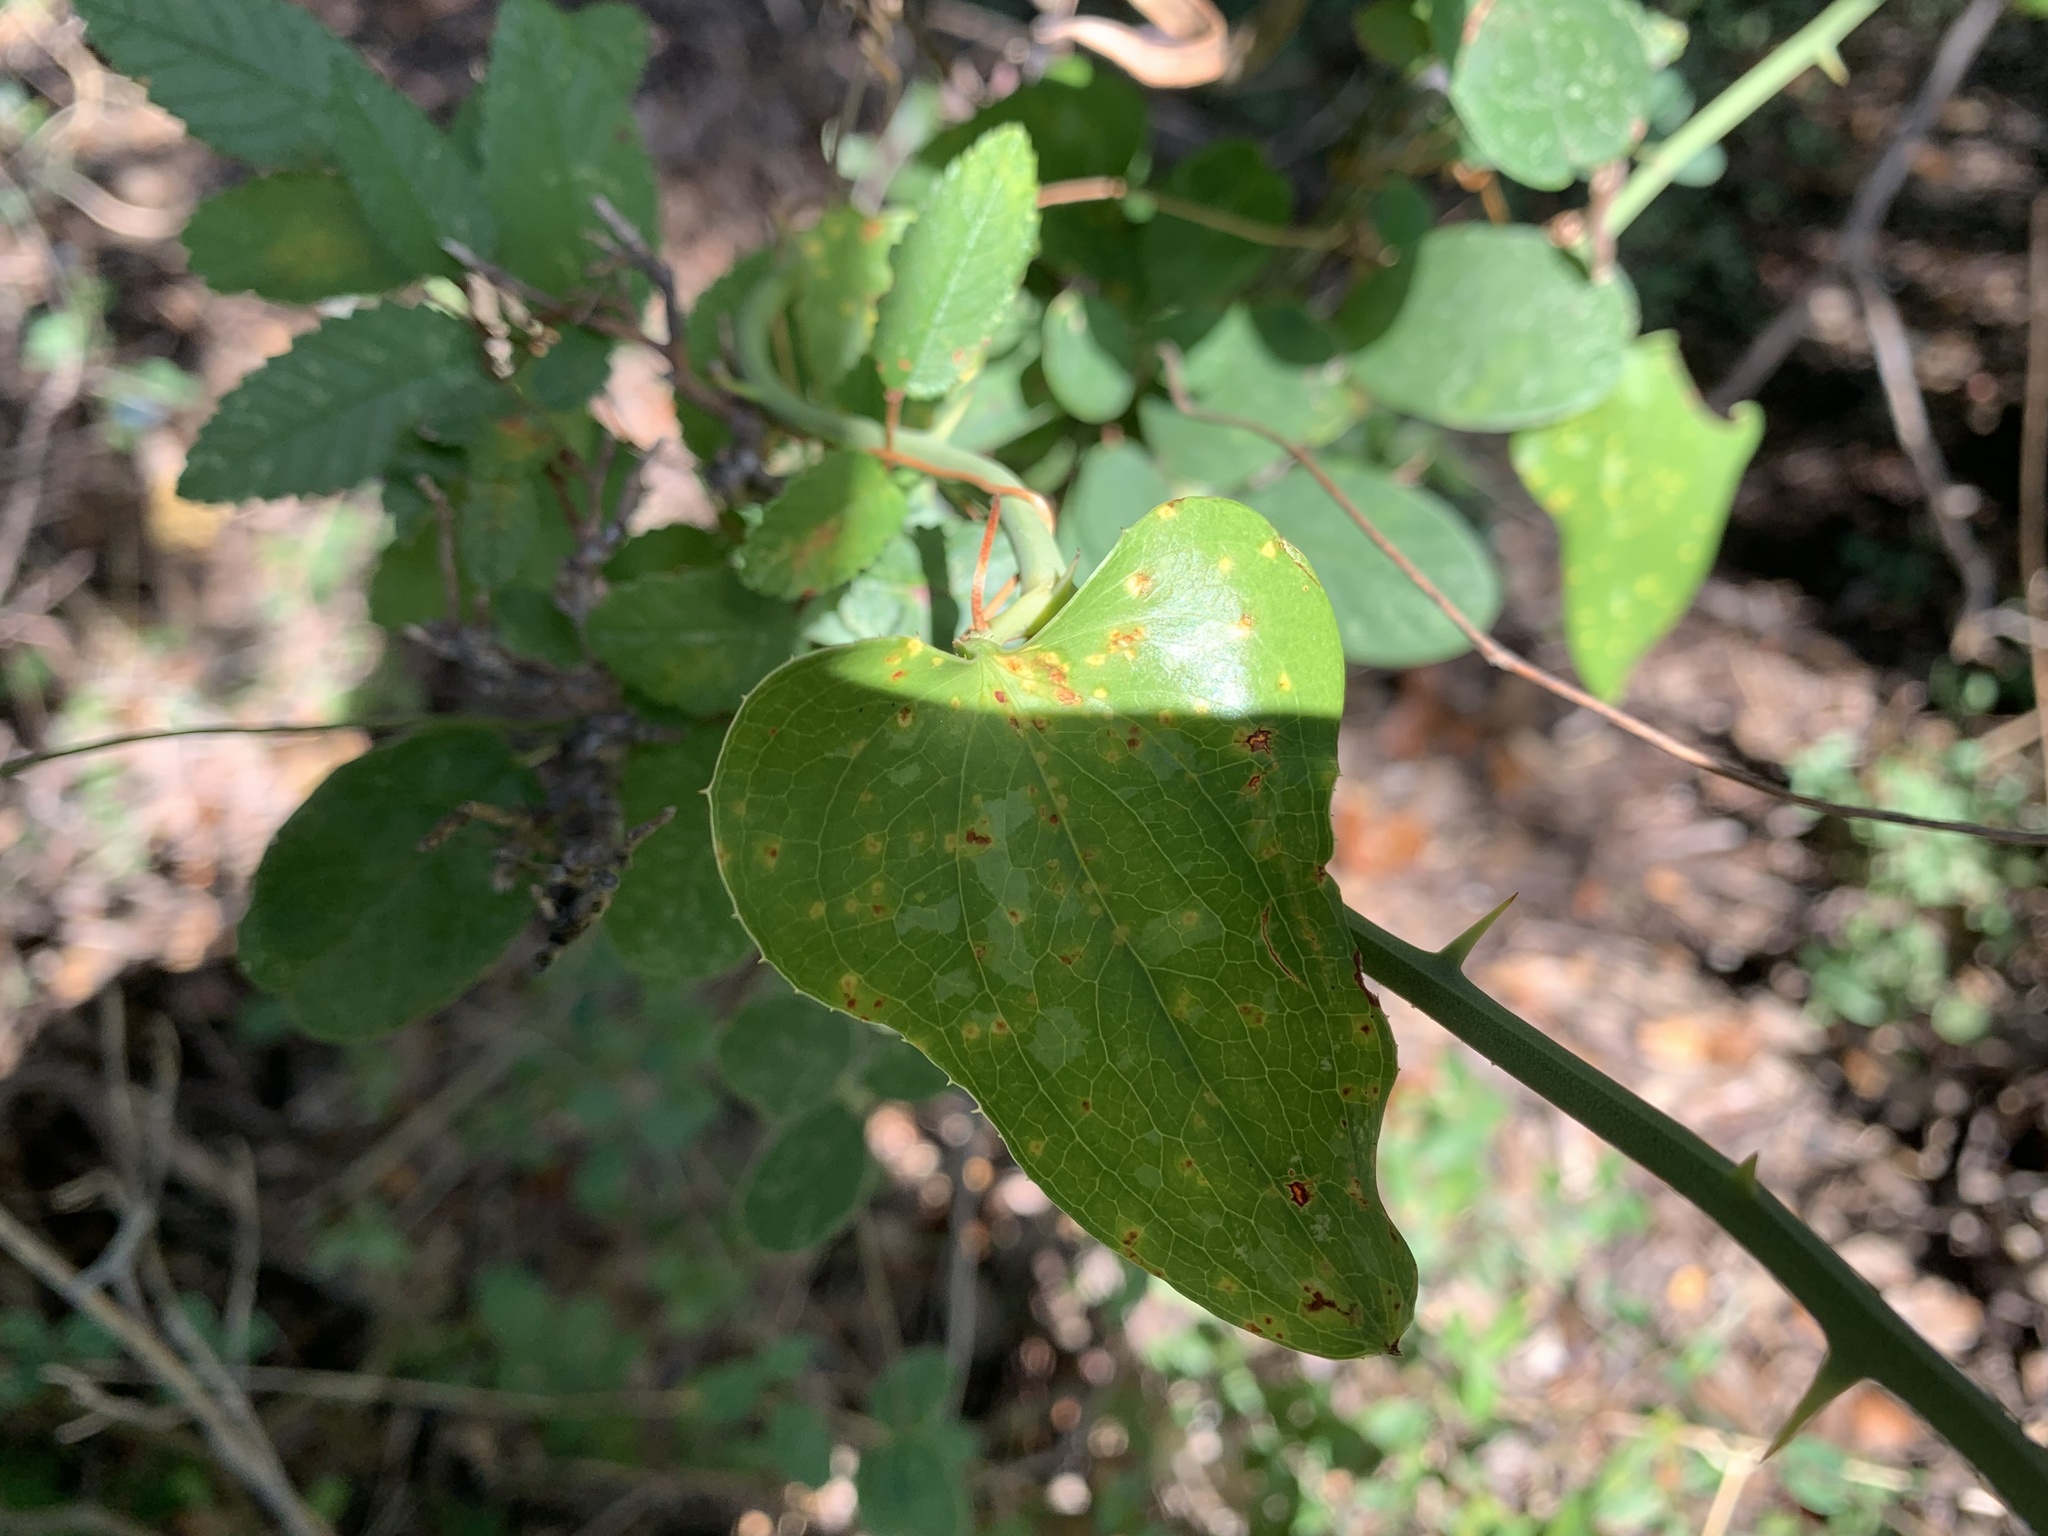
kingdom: Plantae
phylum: Tracheophyta
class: Liliopsida
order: Liliales
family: Smilacaceae
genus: Smilax
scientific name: Smilax bona-nox
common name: Catbrier
